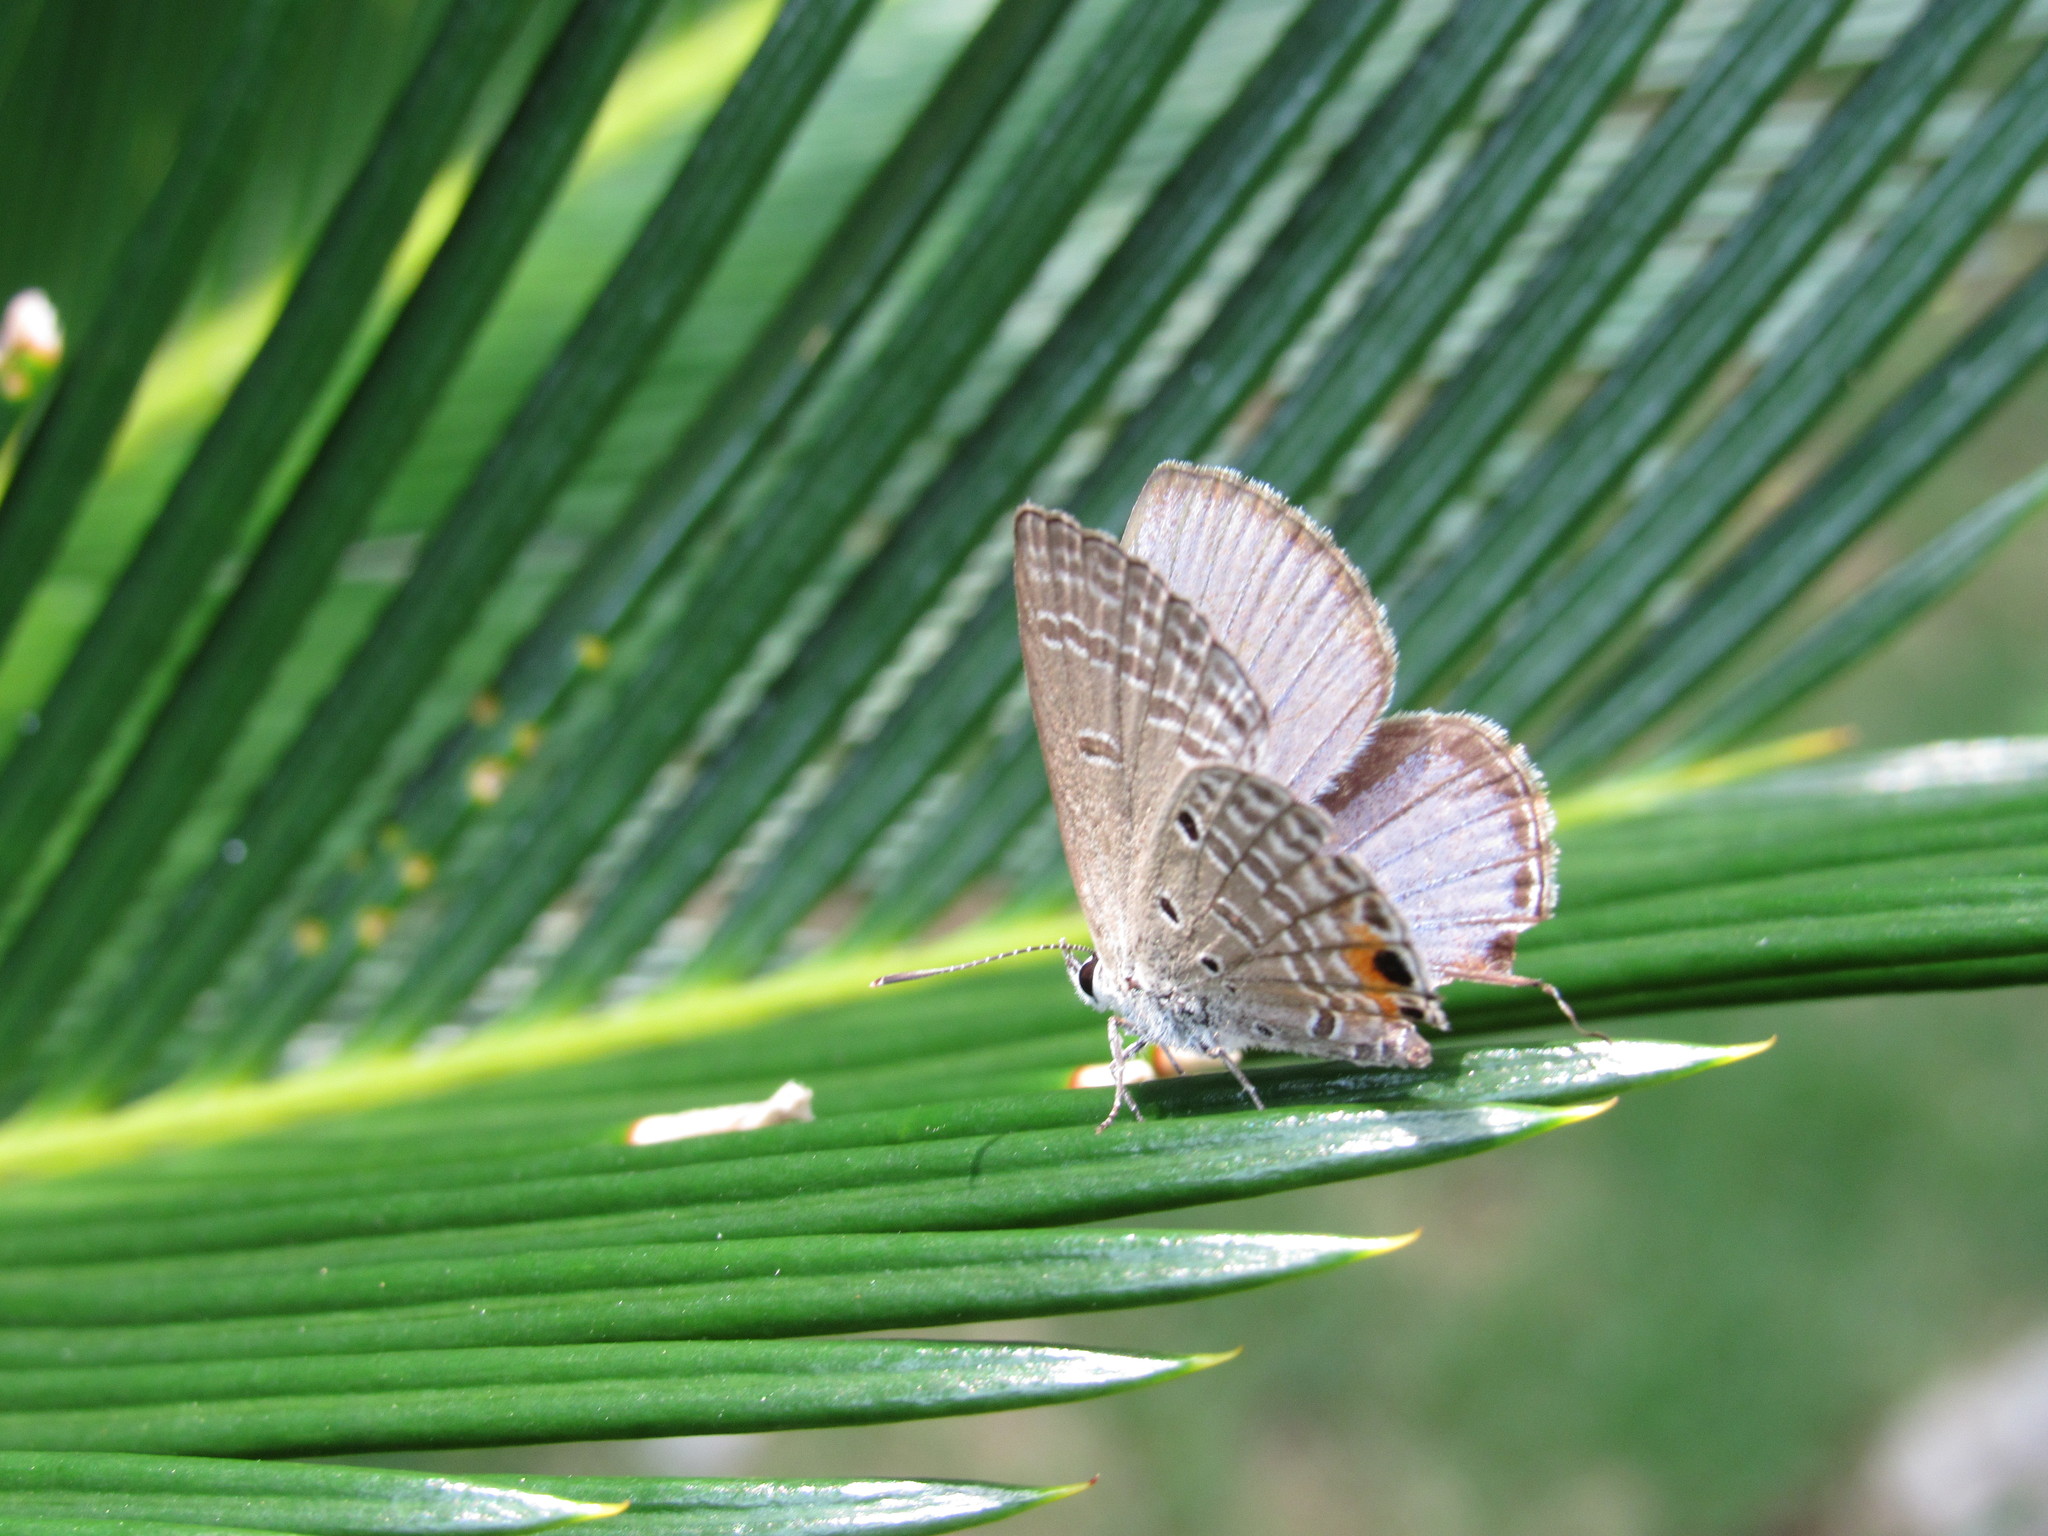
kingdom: Animalia
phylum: Arthropoda
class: Insecta
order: Lepidoptera
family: Lycaenidae
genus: Luthrodes
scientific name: Luthrodes pandava
